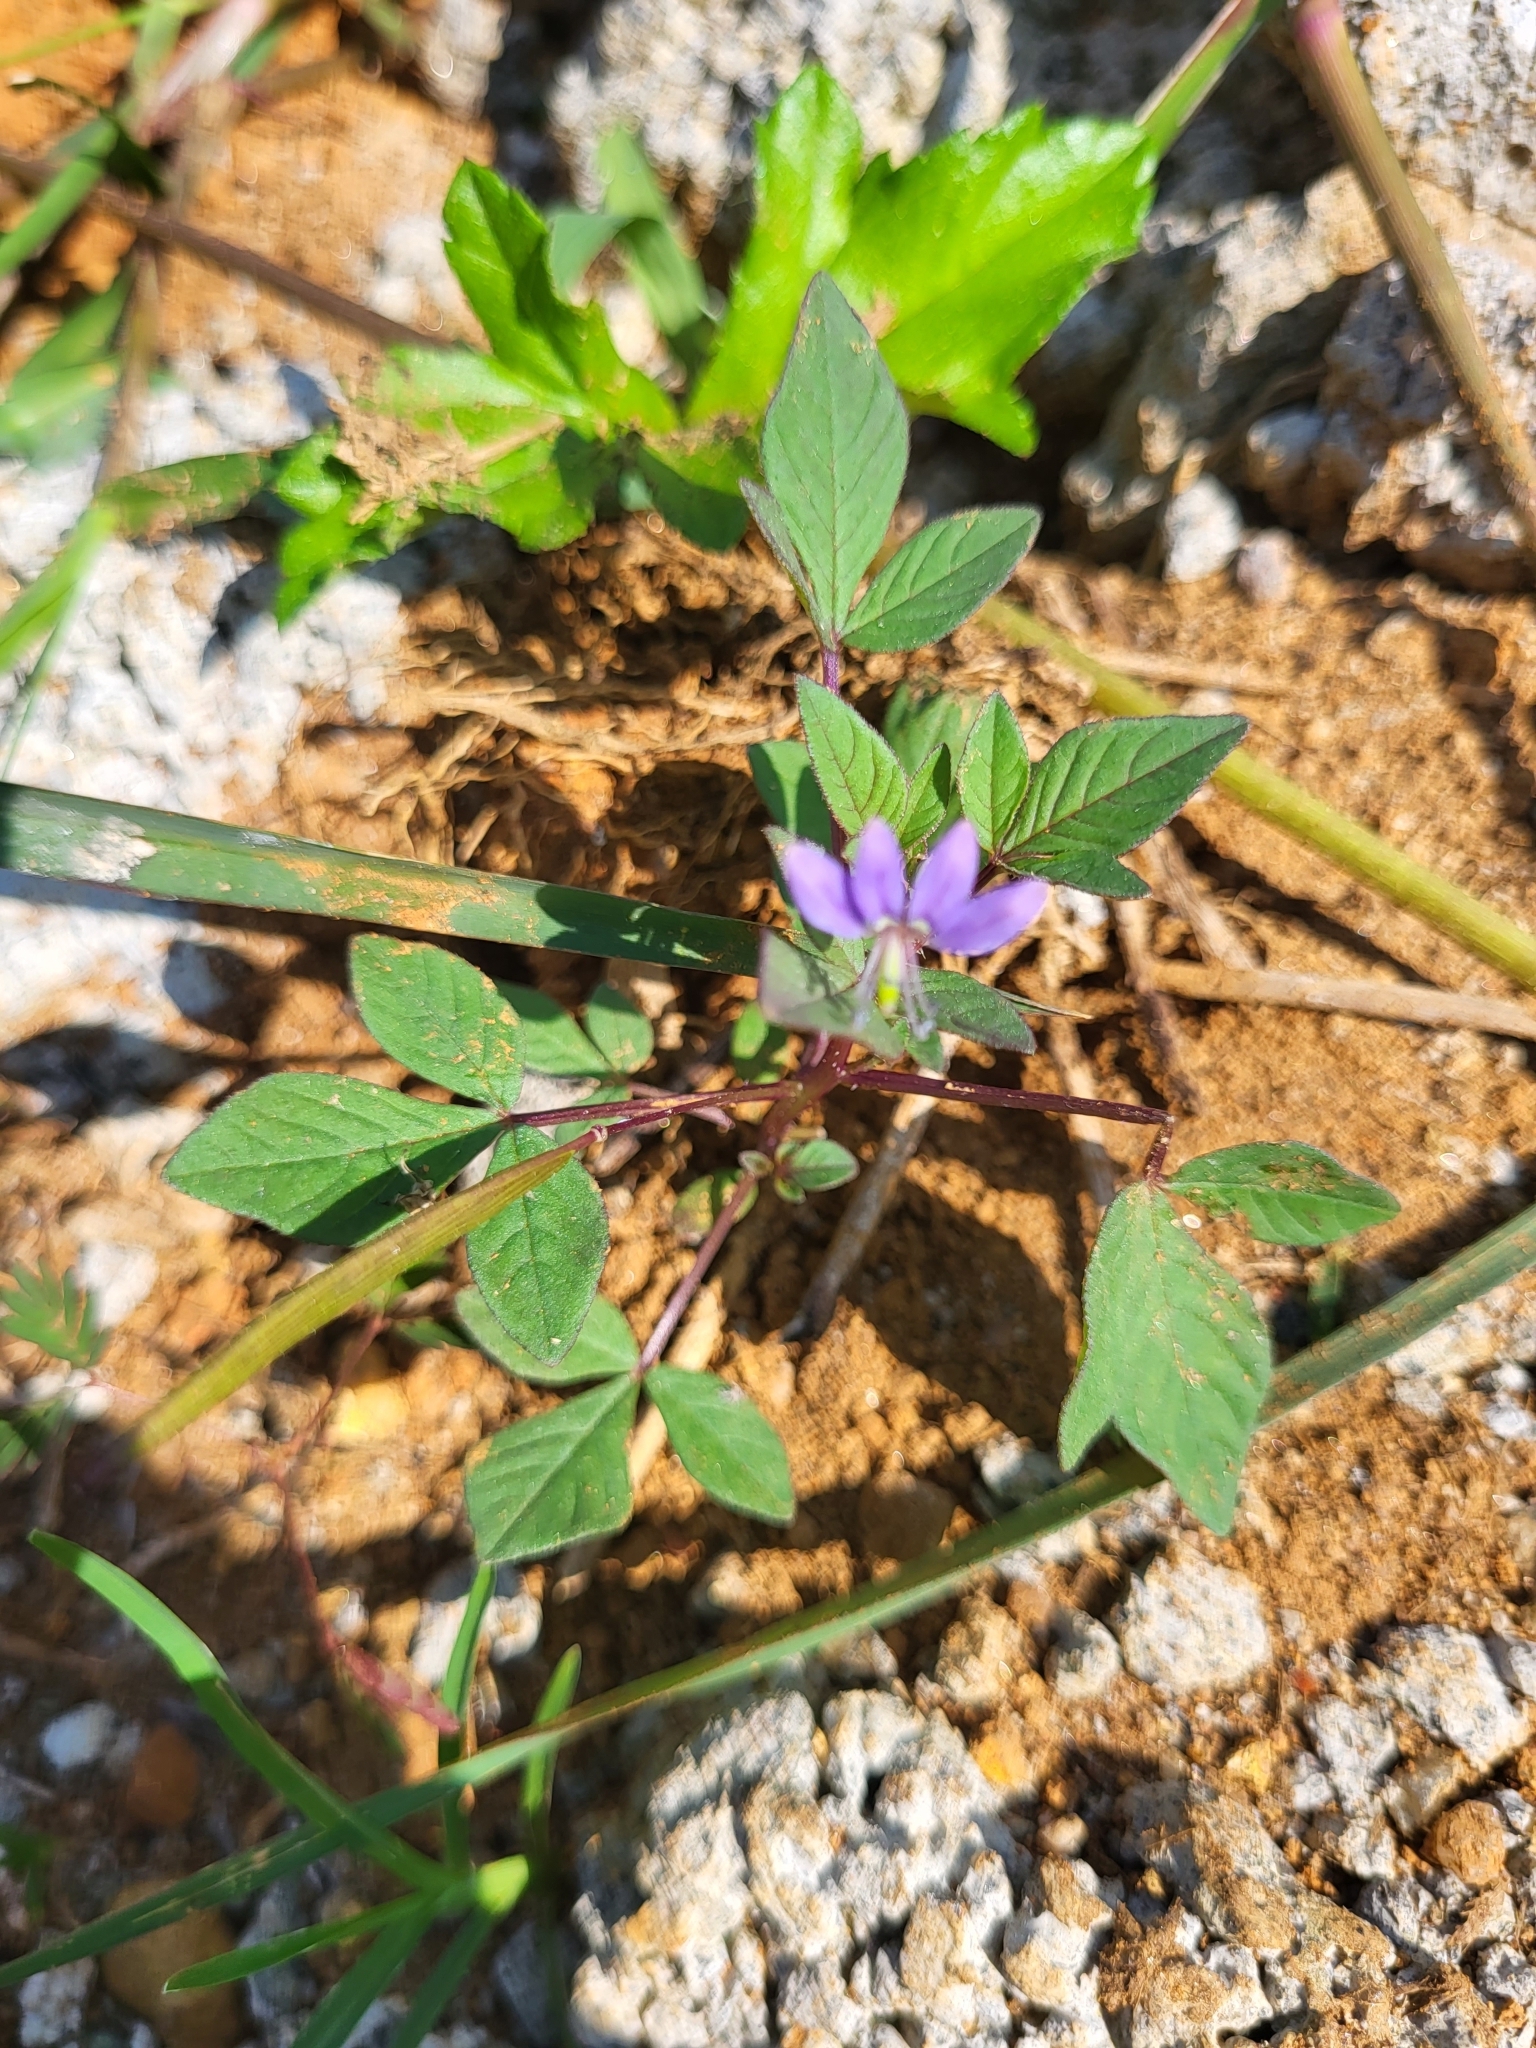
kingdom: Plantae
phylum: Tracheophyta
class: Magnoliopsida
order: Brassicales
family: Cleomaceae
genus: Sieruela
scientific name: Sieruela rutidosperma
